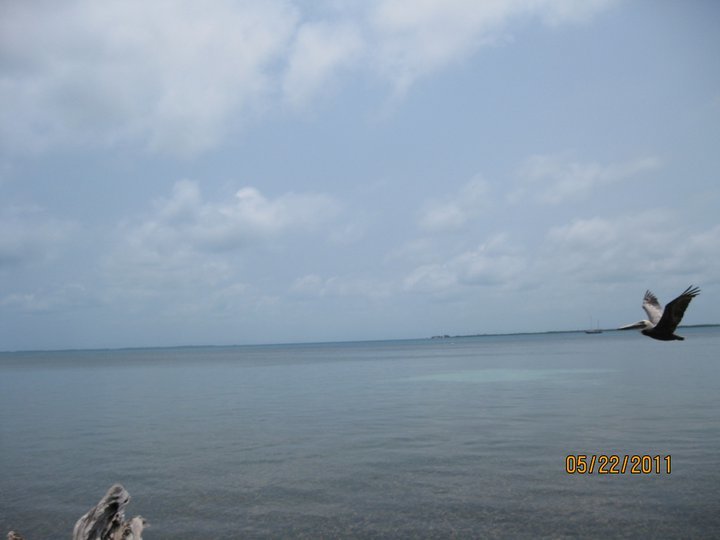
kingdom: Animalia
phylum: Chordata
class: Aves
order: Pelecaniformes
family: Pelecanidae
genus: Pelecanus
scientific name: Pelecanus occidentalis
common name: Brown pelican
